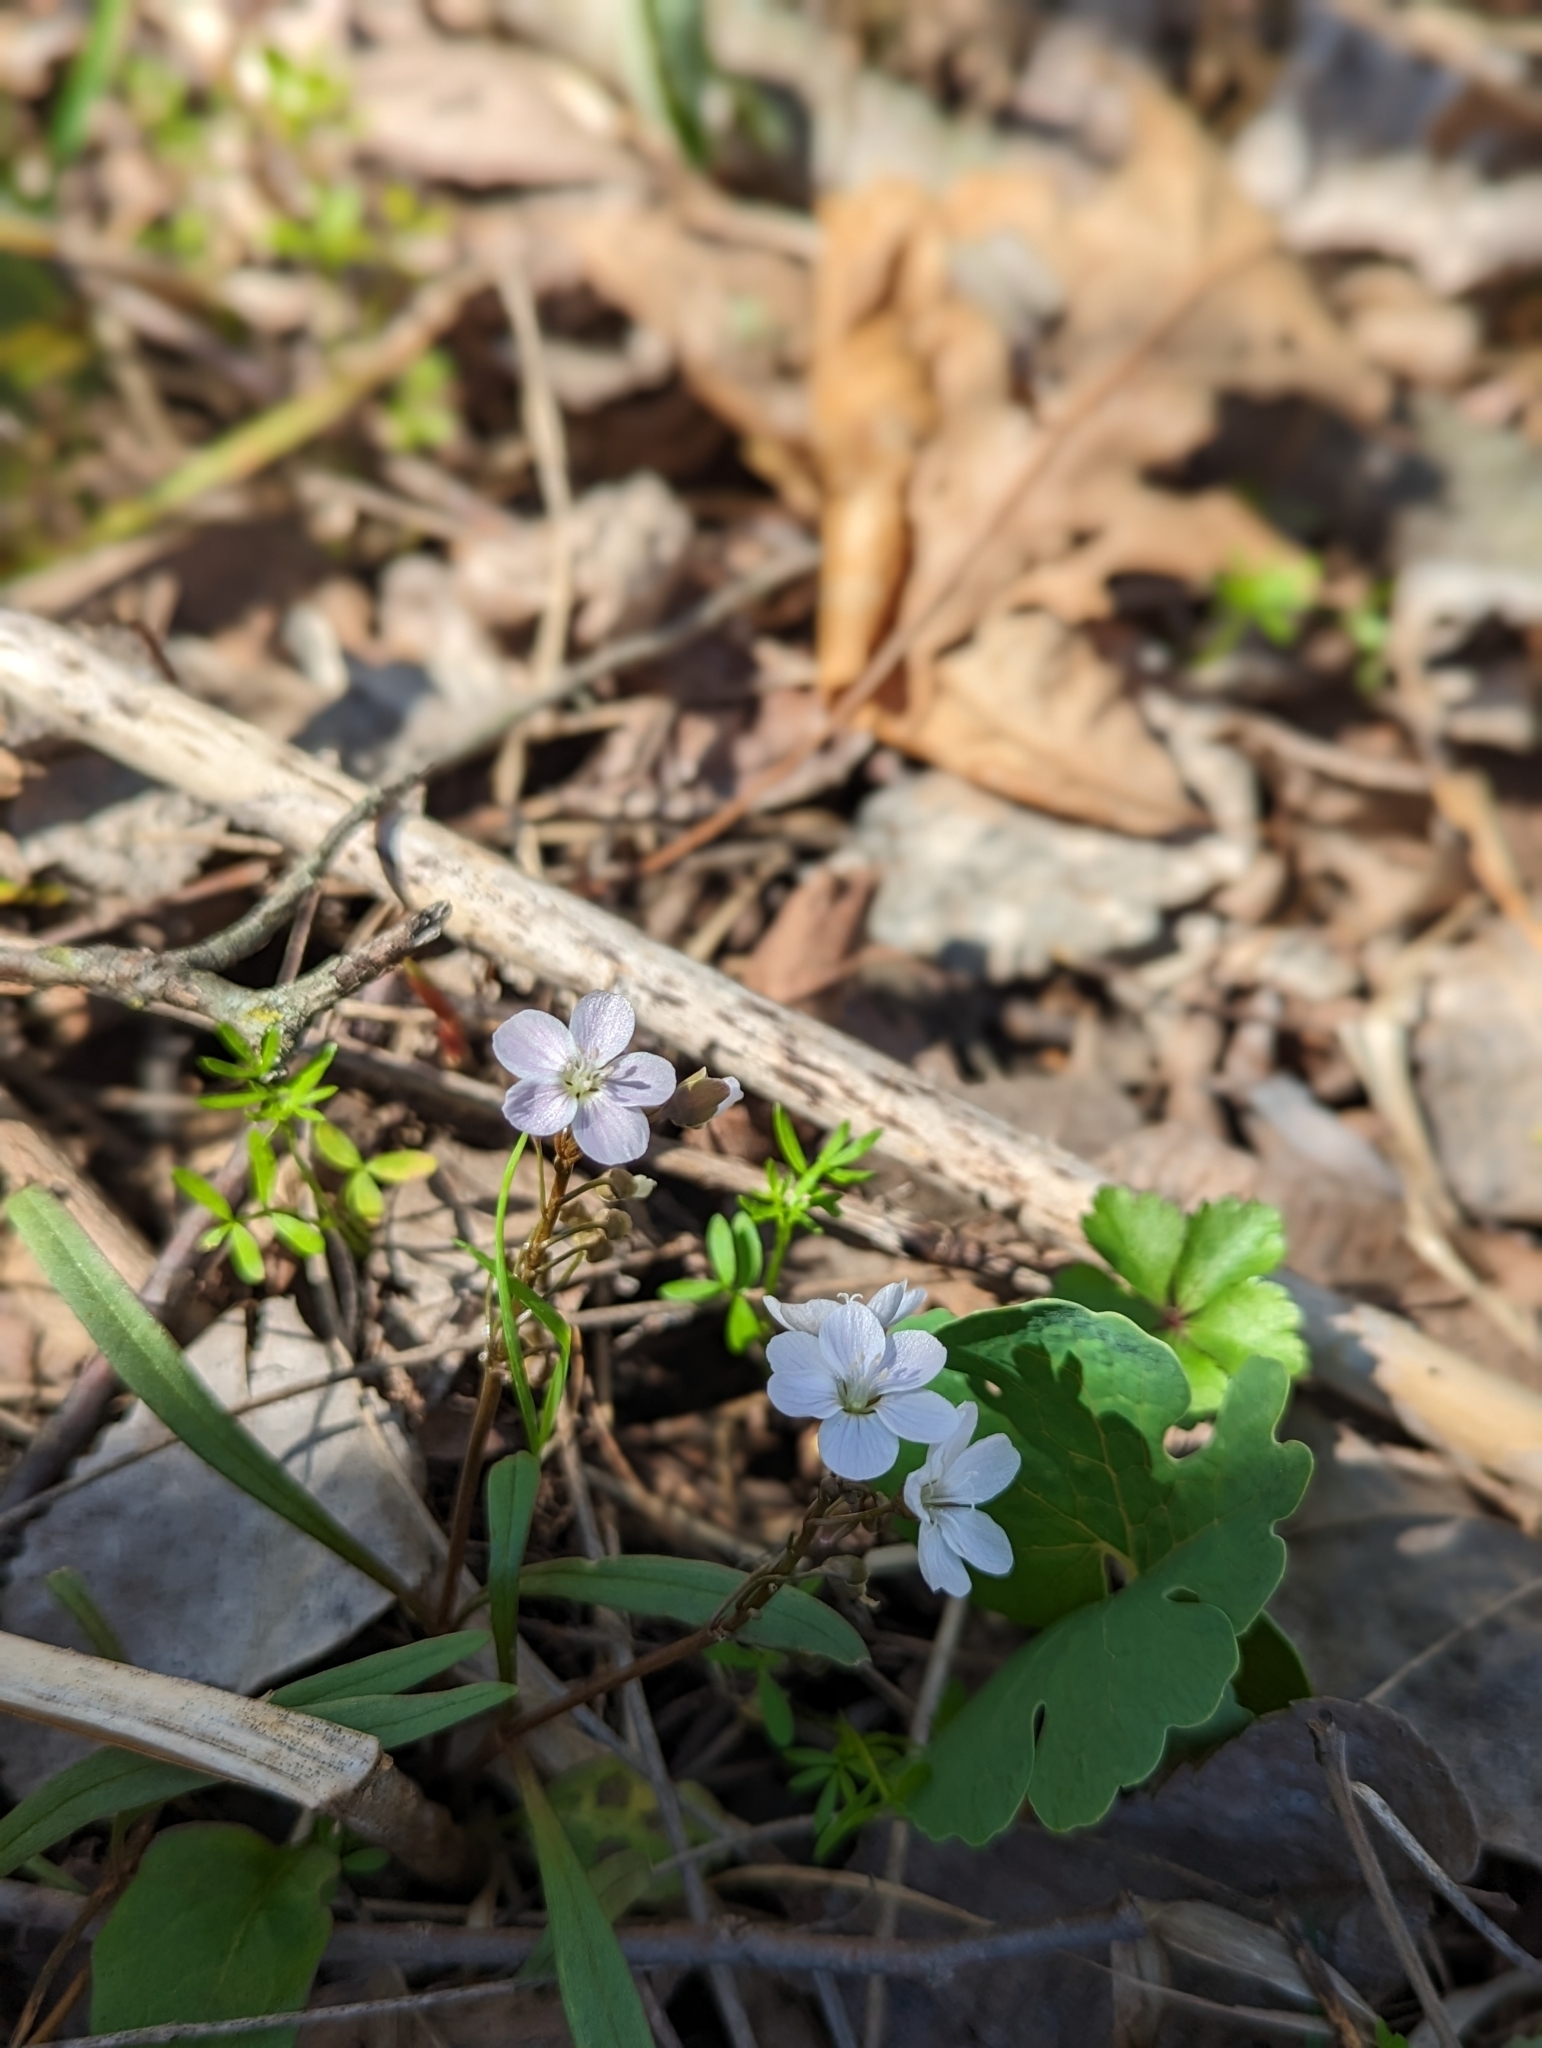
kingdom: Plantae
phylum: Tracheophyta
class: Magnoliopsida
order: Caryophyllales
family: Montiaceae
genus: Claytonia
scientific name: Claytonia virginica
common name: Virginia springbeauty
